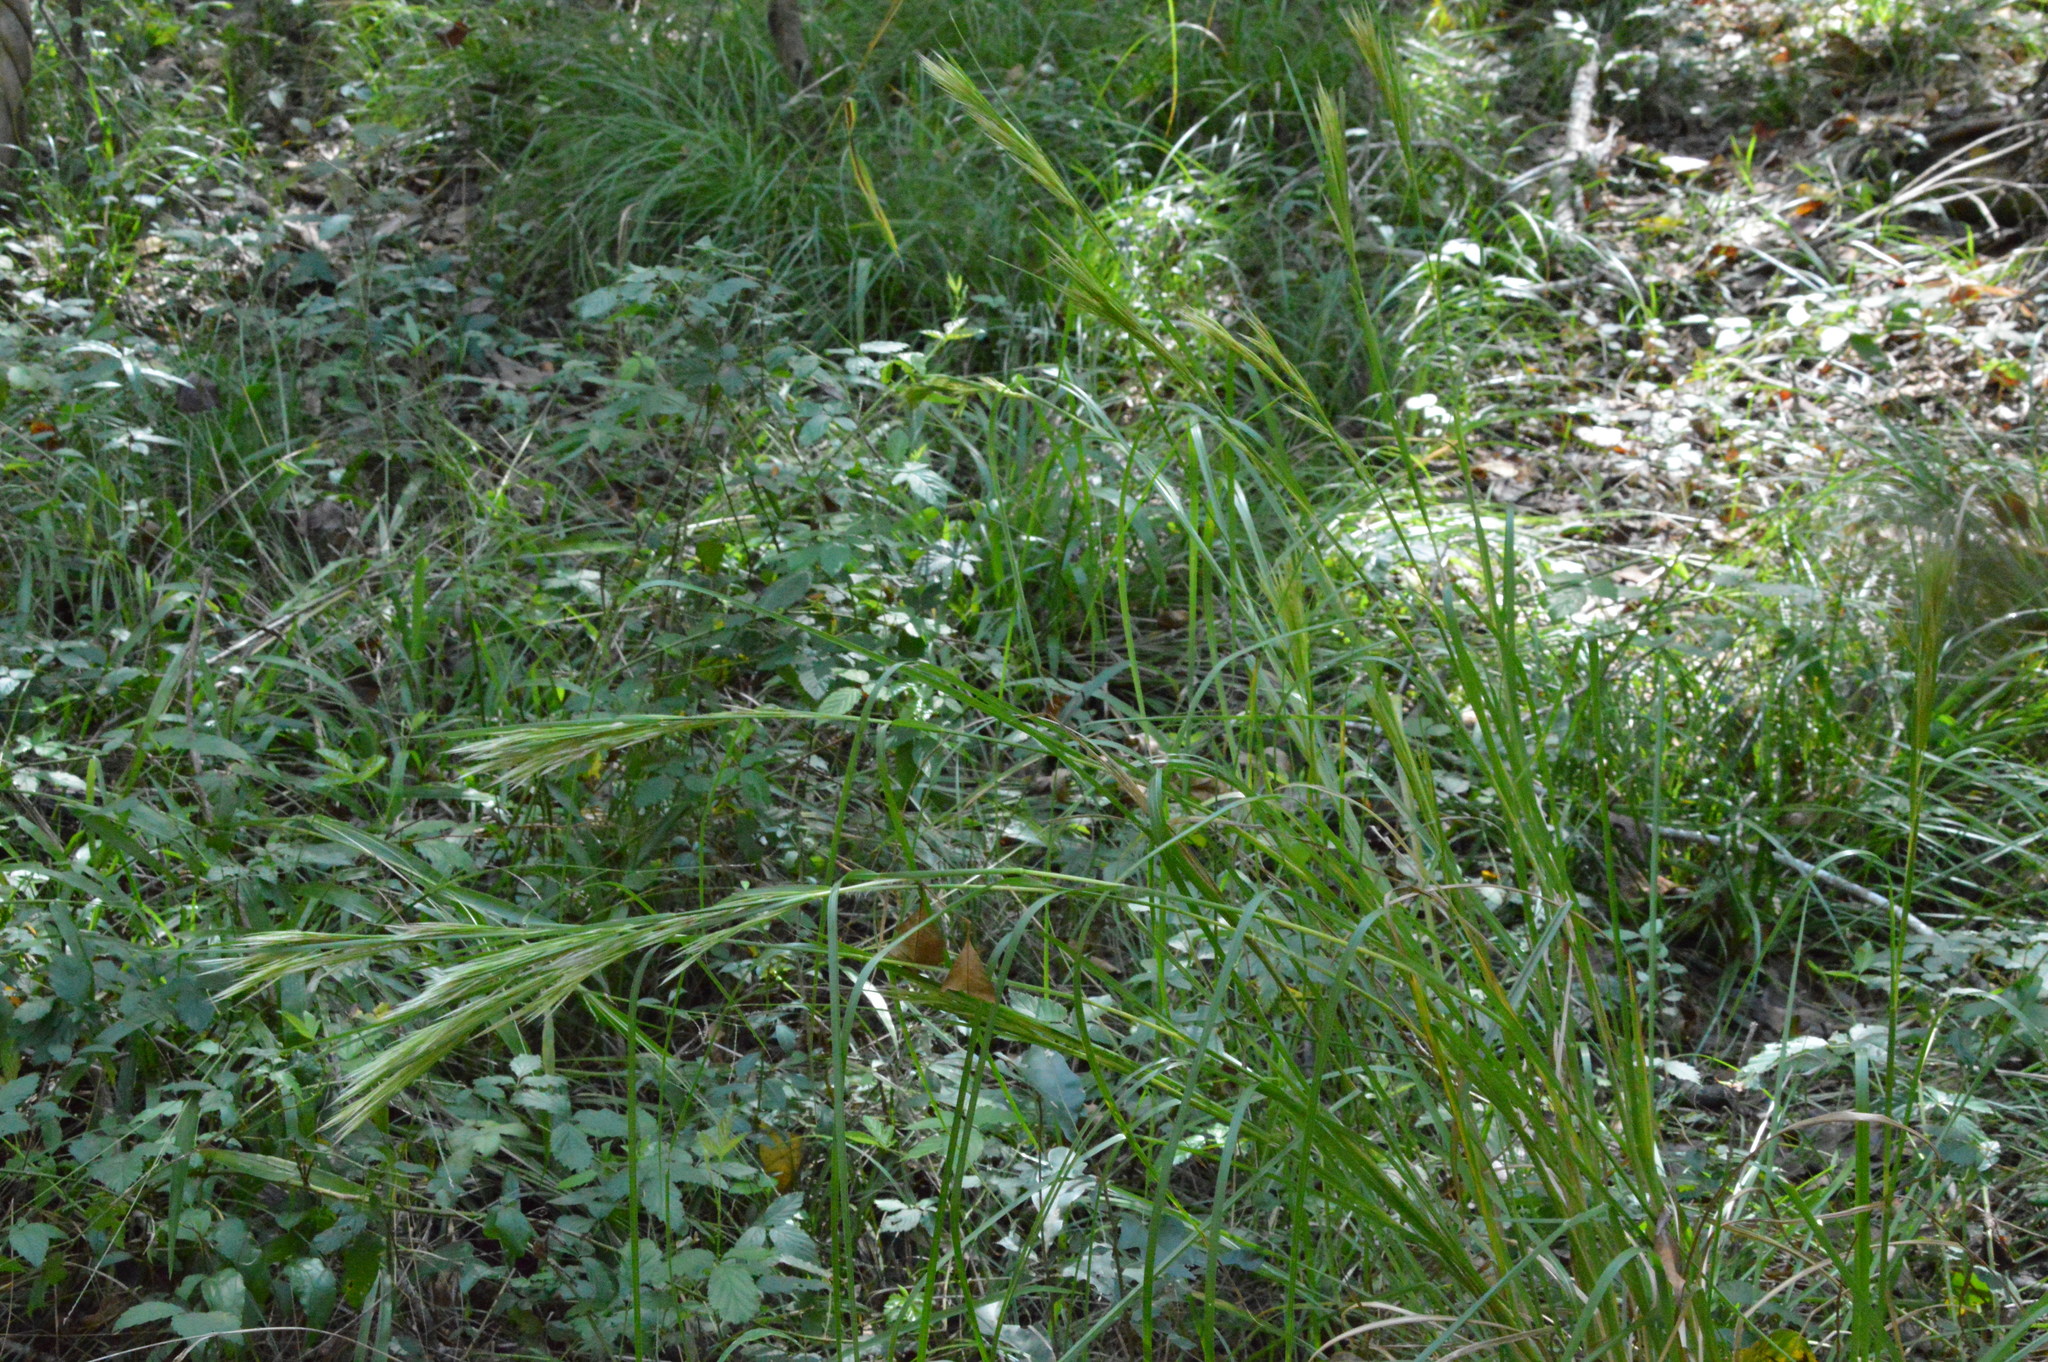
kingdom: Plantae
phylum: Tracheophyta
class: Liliopsida
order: Poales
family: Poaceae
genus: Andropogon
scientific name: Andropogon tenuispatheus
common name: Bushy bluestem
